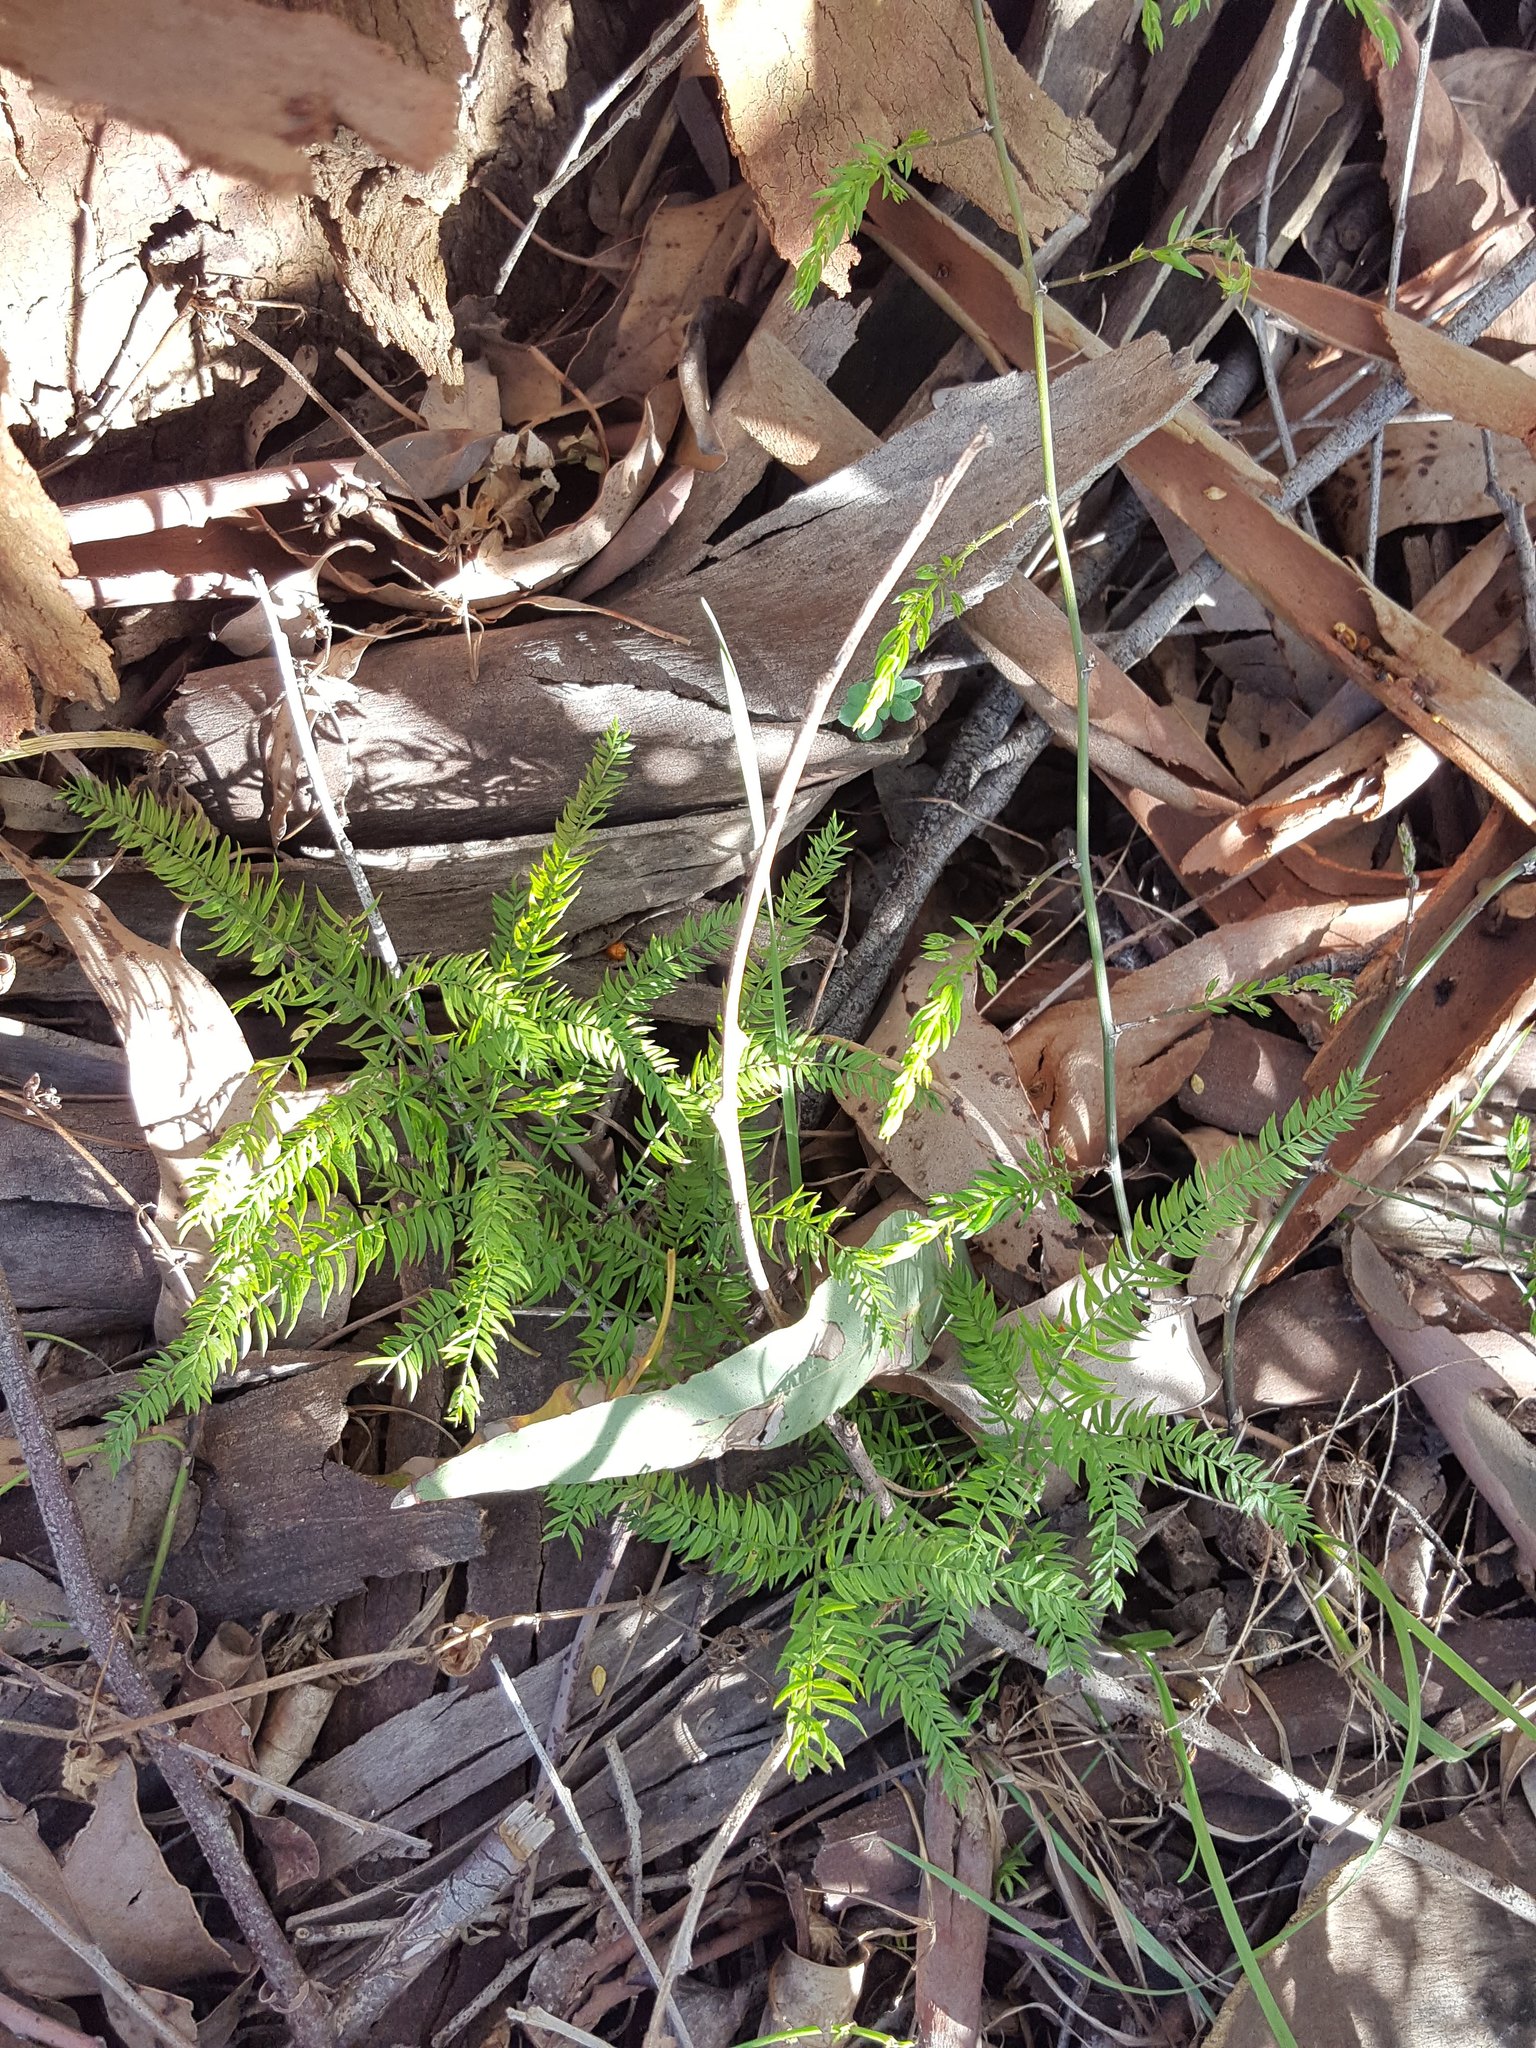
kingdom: Plantae
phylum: Tracheophyta
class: Liliopsida
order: Asparagales
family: Asparagaceae
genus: Asparagus
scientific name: Asparagus scandens
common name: Asparagus-fern
